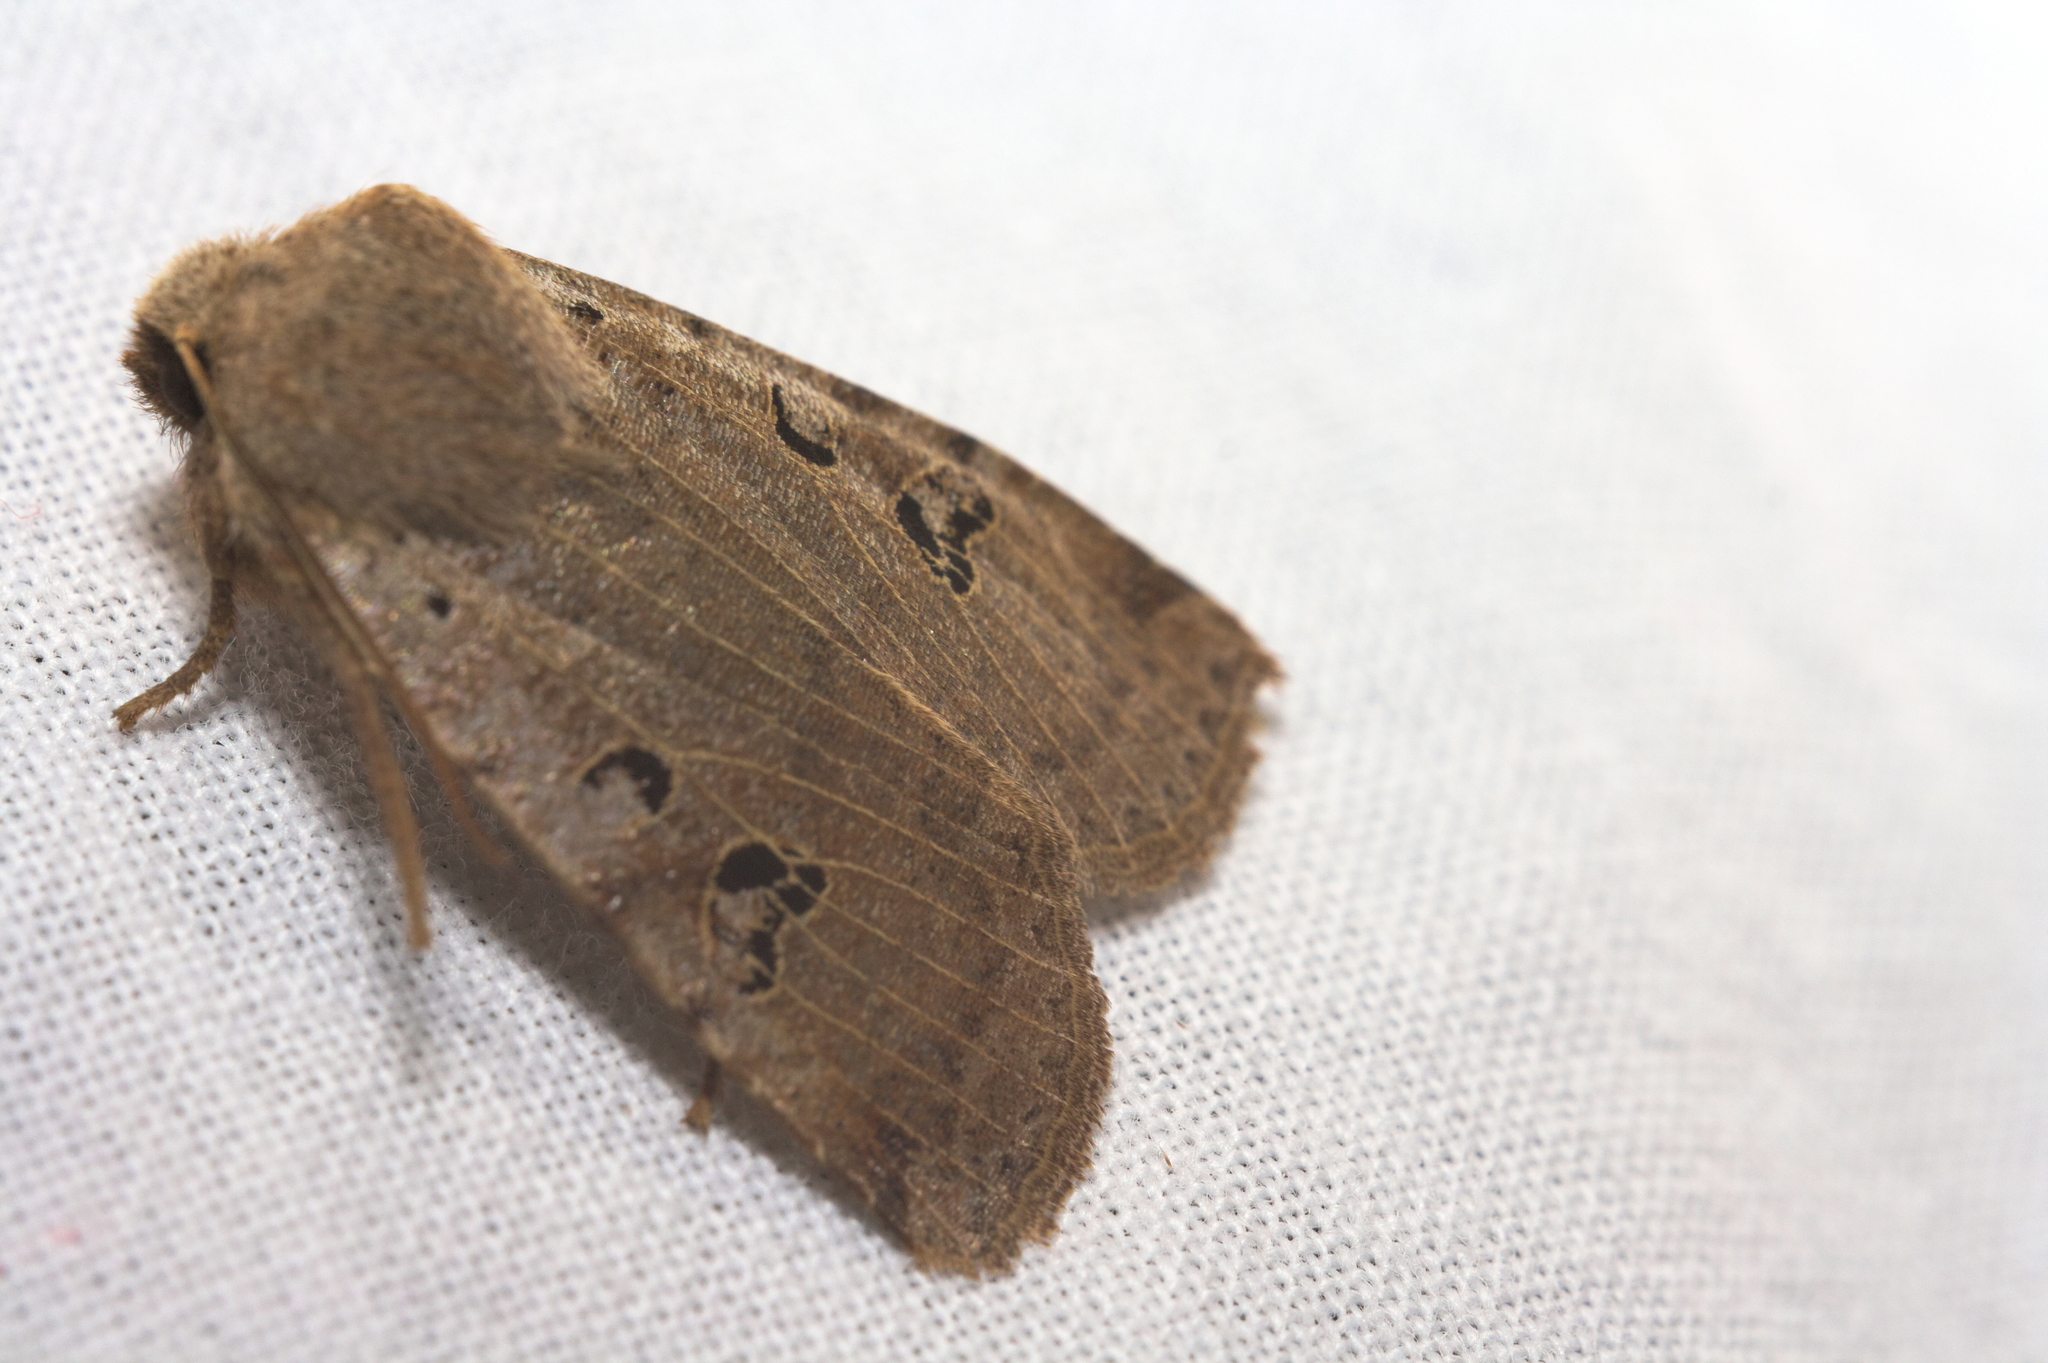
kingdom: Animalia
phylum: Arthropoda
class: Insecta
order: Lepidoptera
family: Noctuidae
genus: Conistra
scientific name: Conistra rubiginosa
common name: Black-spotted chestnut
